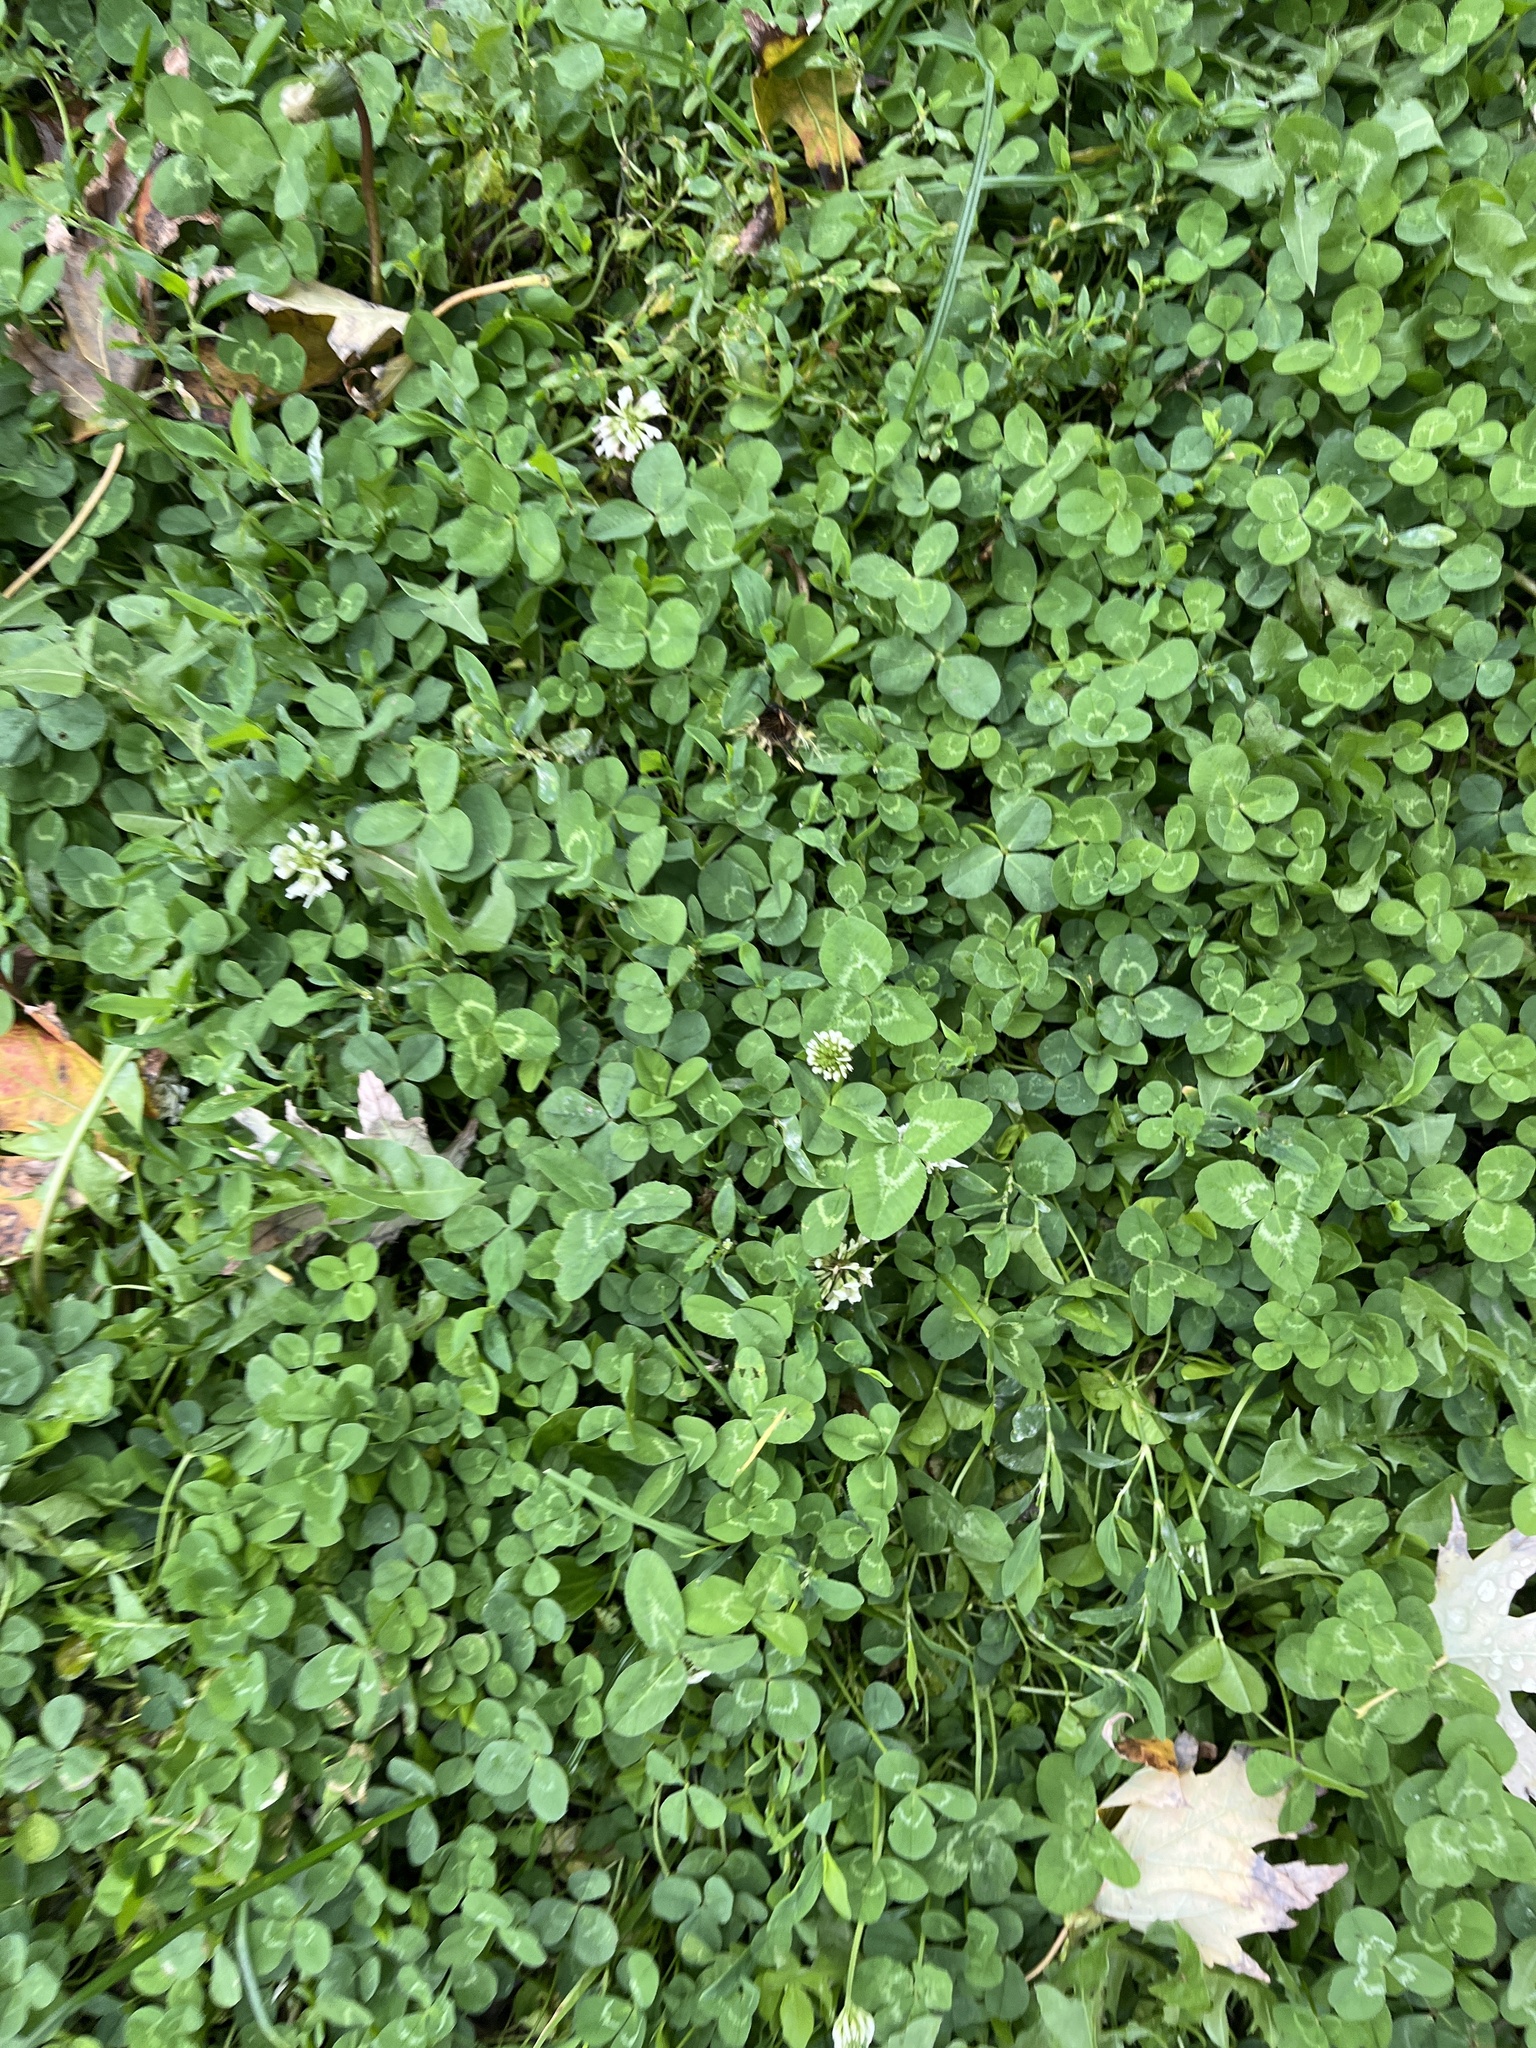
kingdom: Plantae
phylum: Tracheophyta
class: Magnoliopsida
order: Fabales
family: Fabaceae
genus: Trifolium
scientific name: Trifolium repens
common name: White clover
